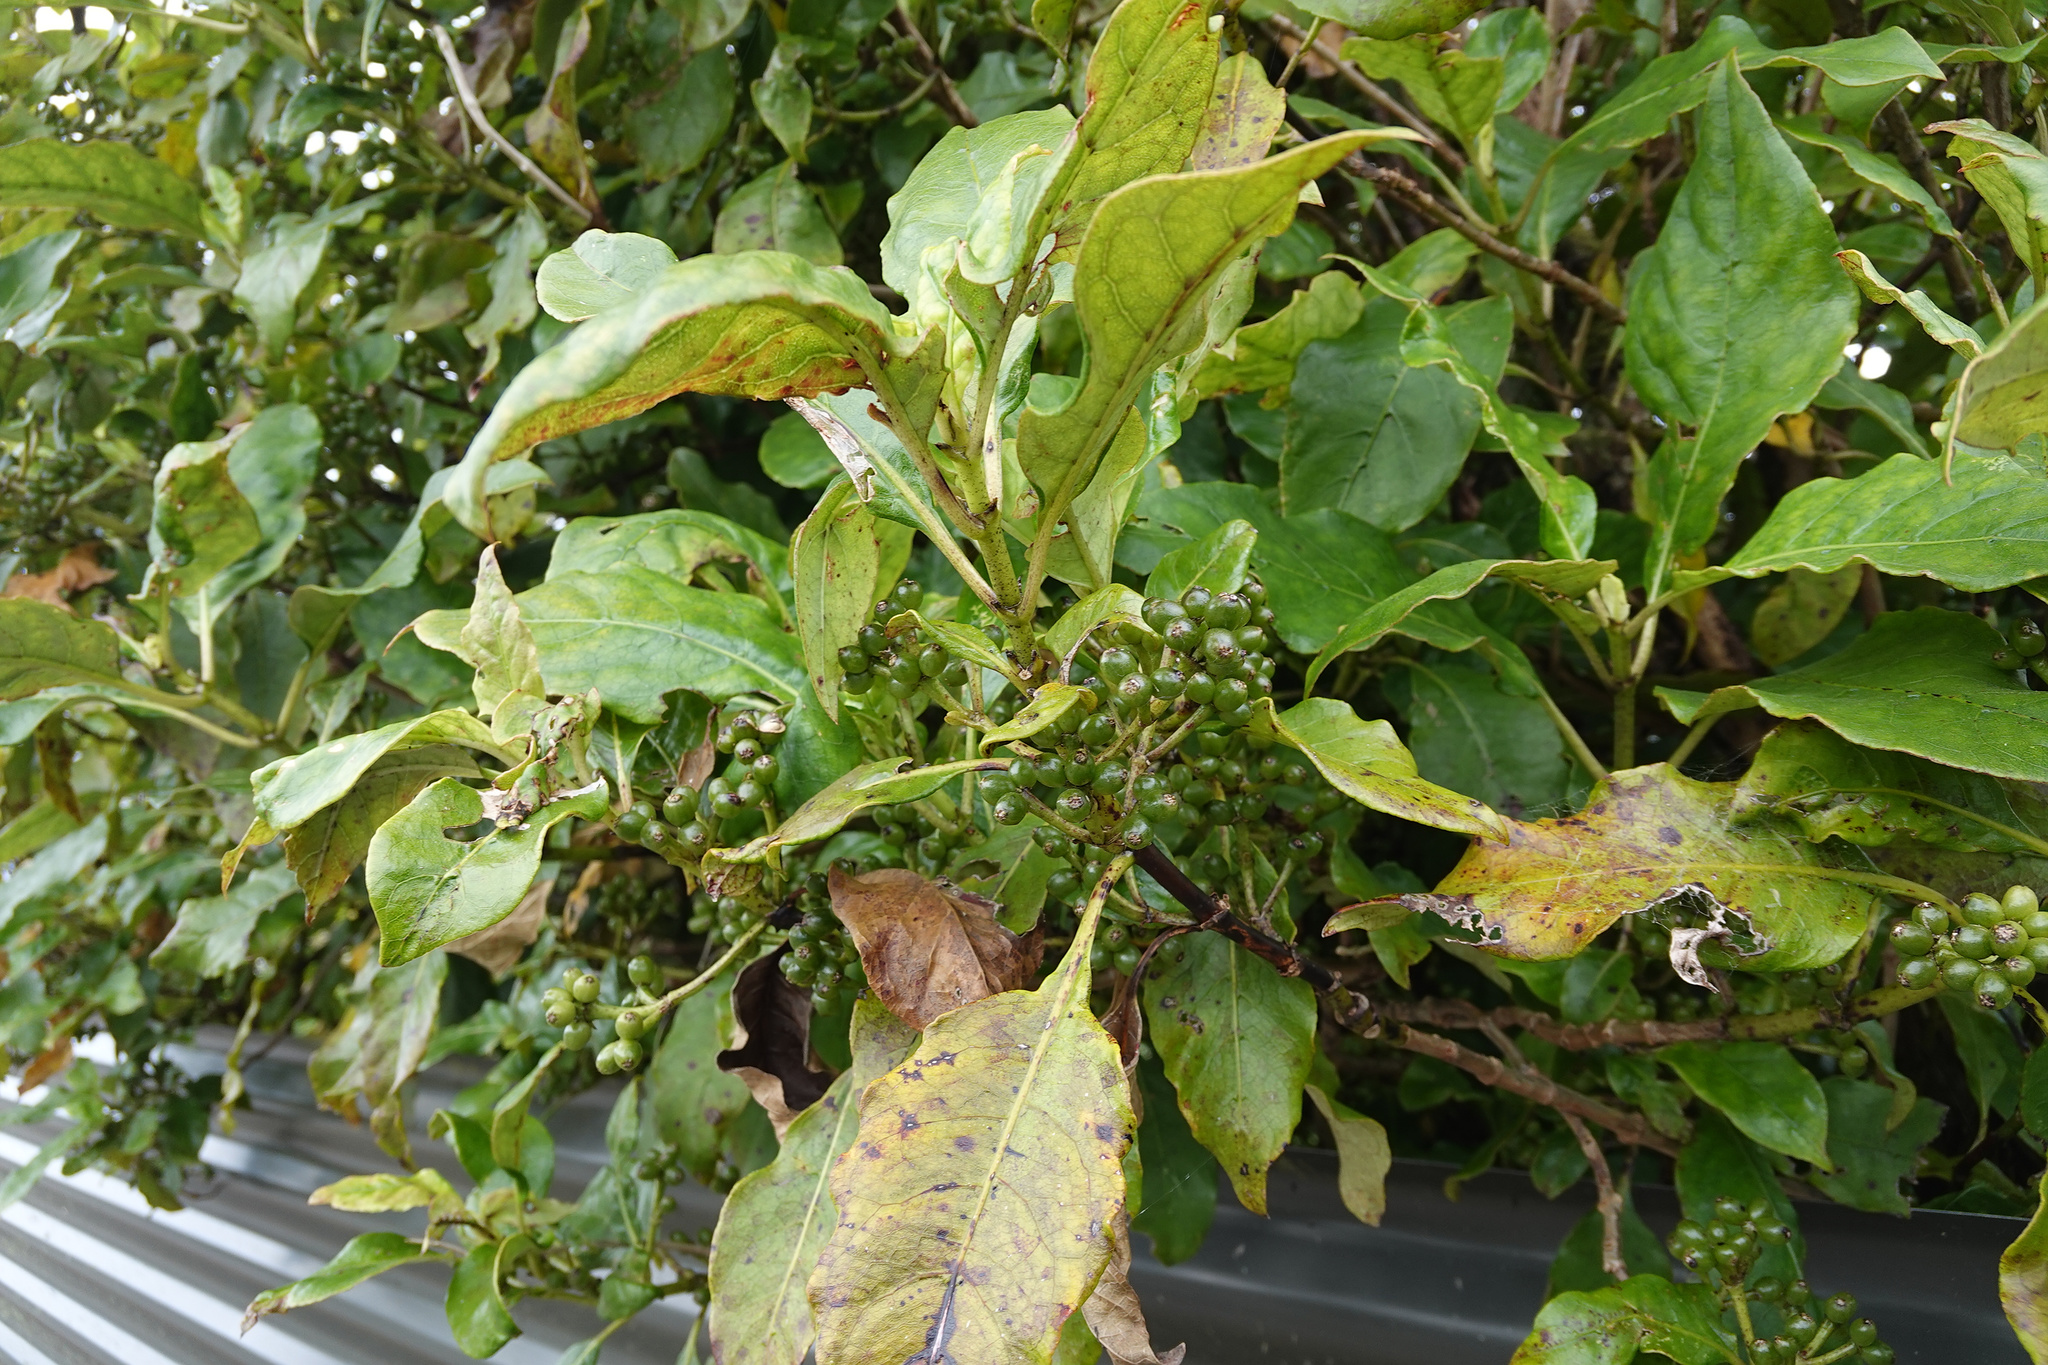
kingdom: Plantae
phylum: Tracheophyta
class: Magnoliopsida
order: Gentianales
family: Rubiaceae
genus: Coprosma
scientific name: Coprosma autumnalis
